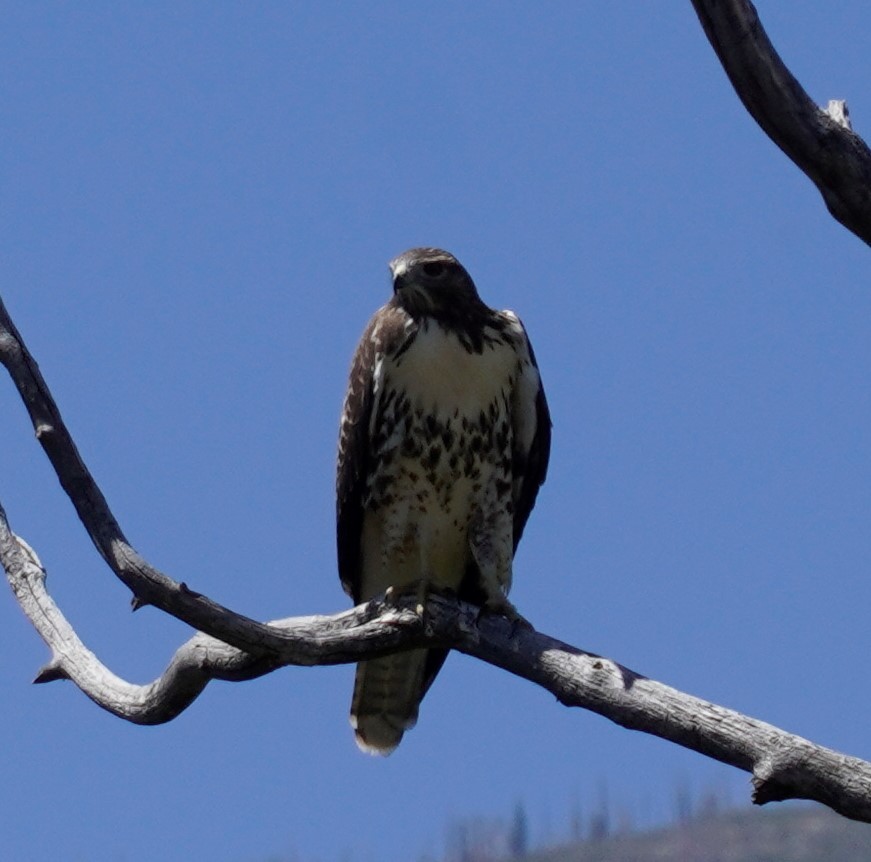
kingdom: Animalia
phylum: Chordata
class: Aves
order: Accipitriformes
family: Accipitridae
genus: Buteo
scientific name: Buteo jamaicensis
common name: Red-tailed hawk
